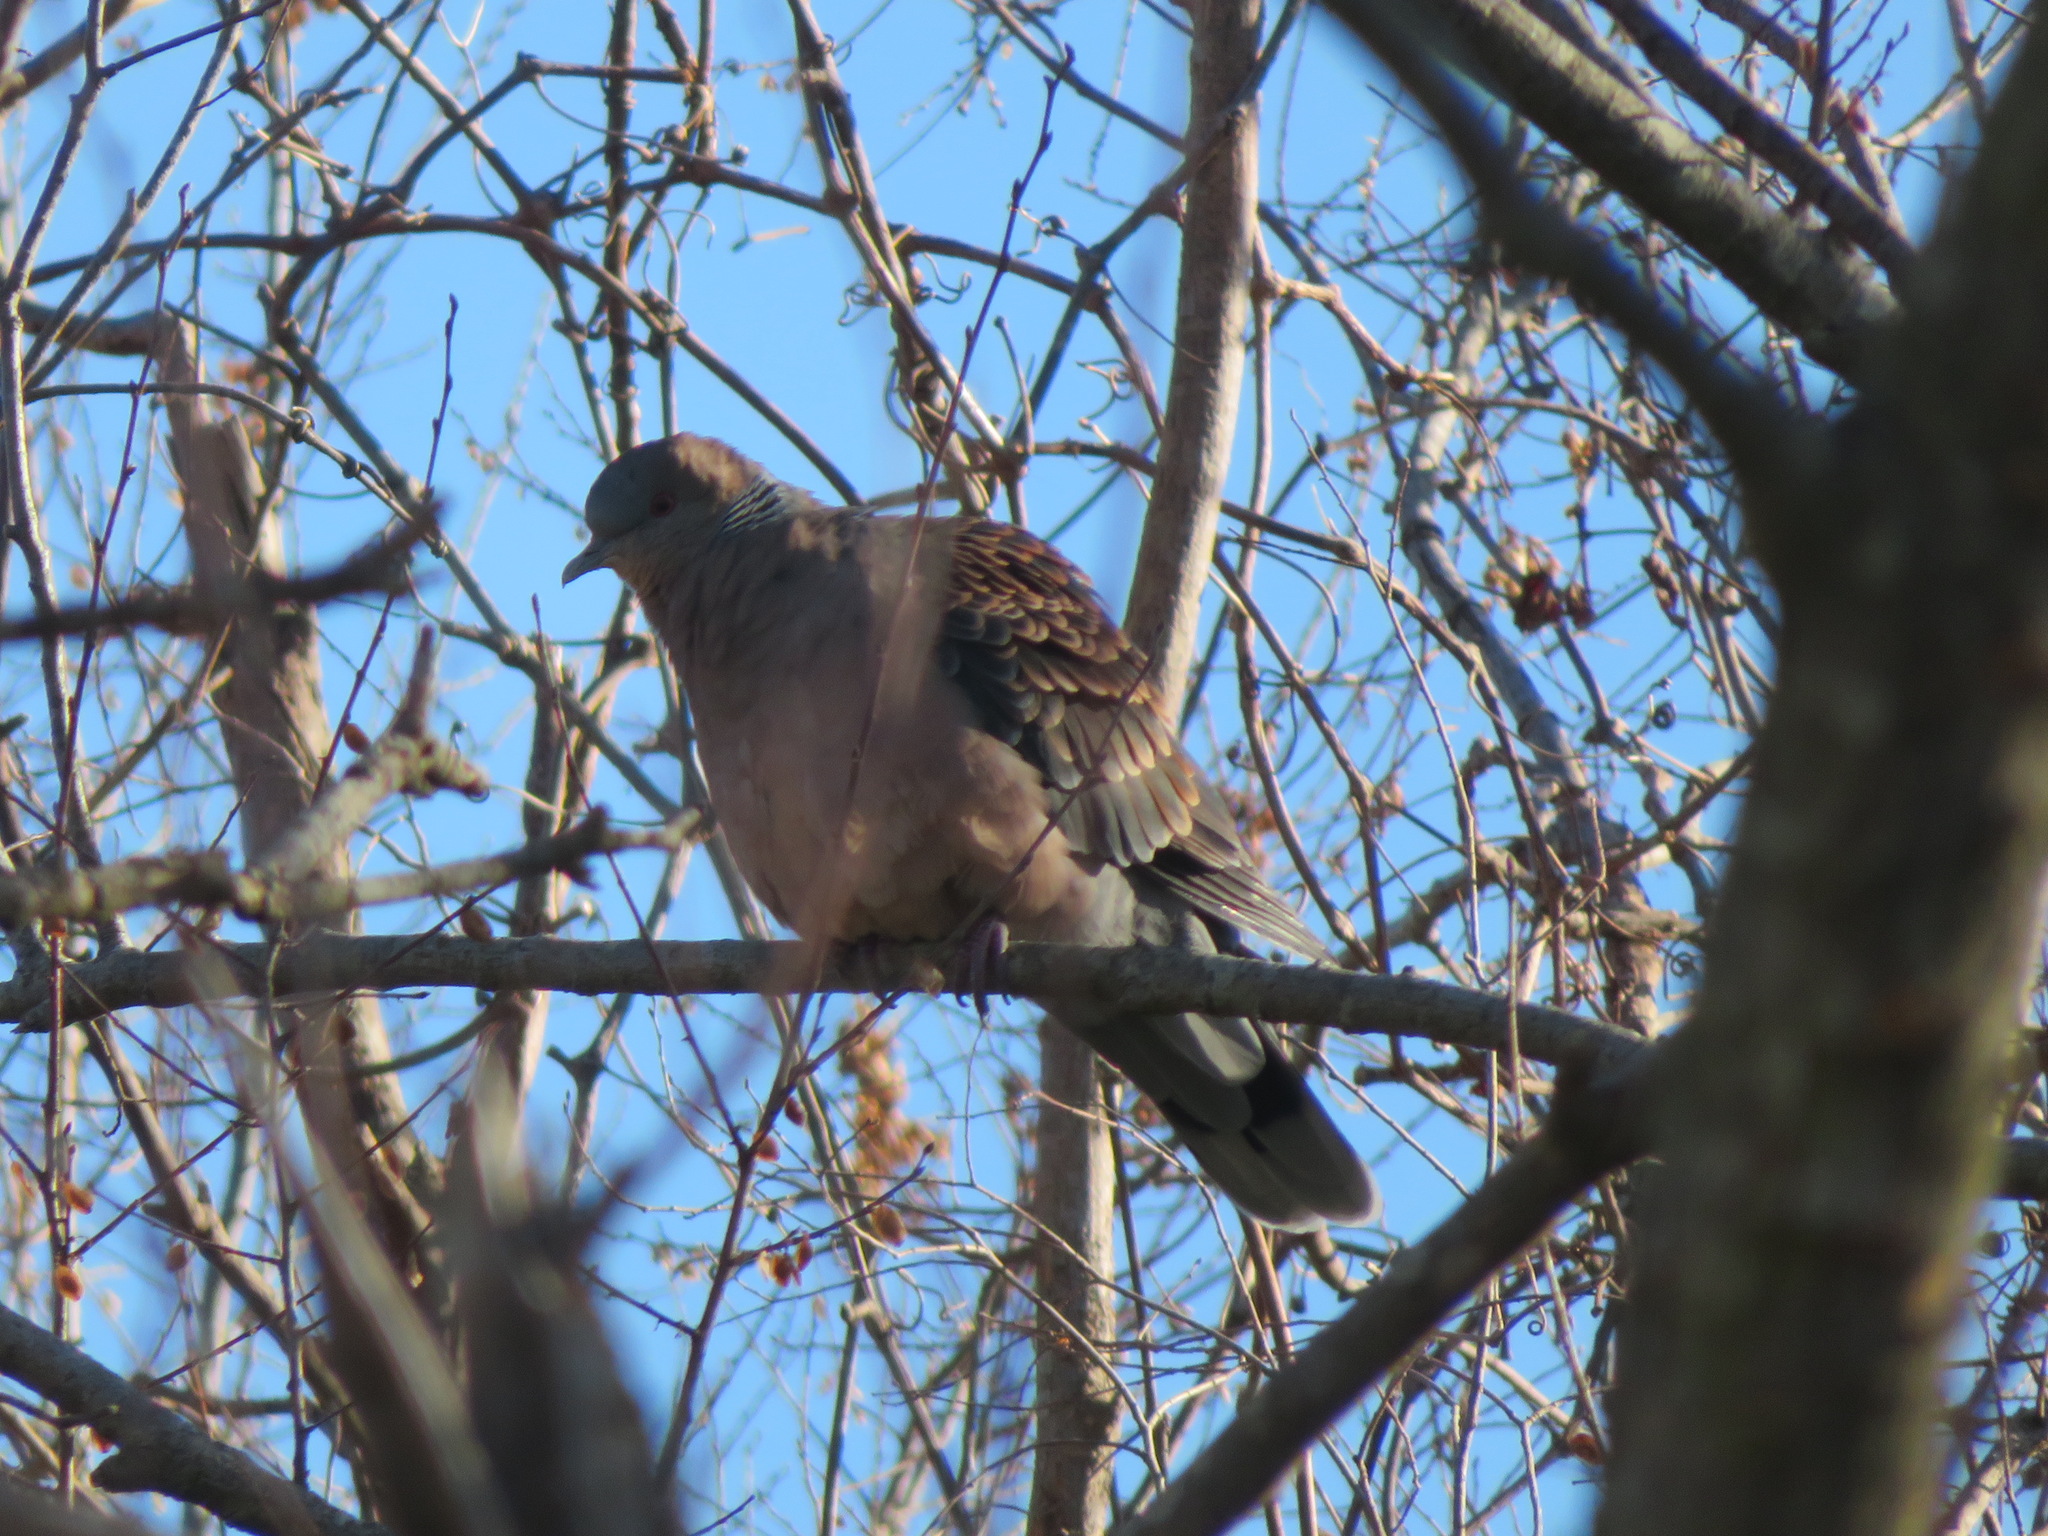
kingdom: Animalia
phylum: Chordata
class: Aves
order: Columbiformes
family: Columbidae
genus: Streptopelia
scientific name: Streptopelia orientalis
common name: Oriental turtle dove
